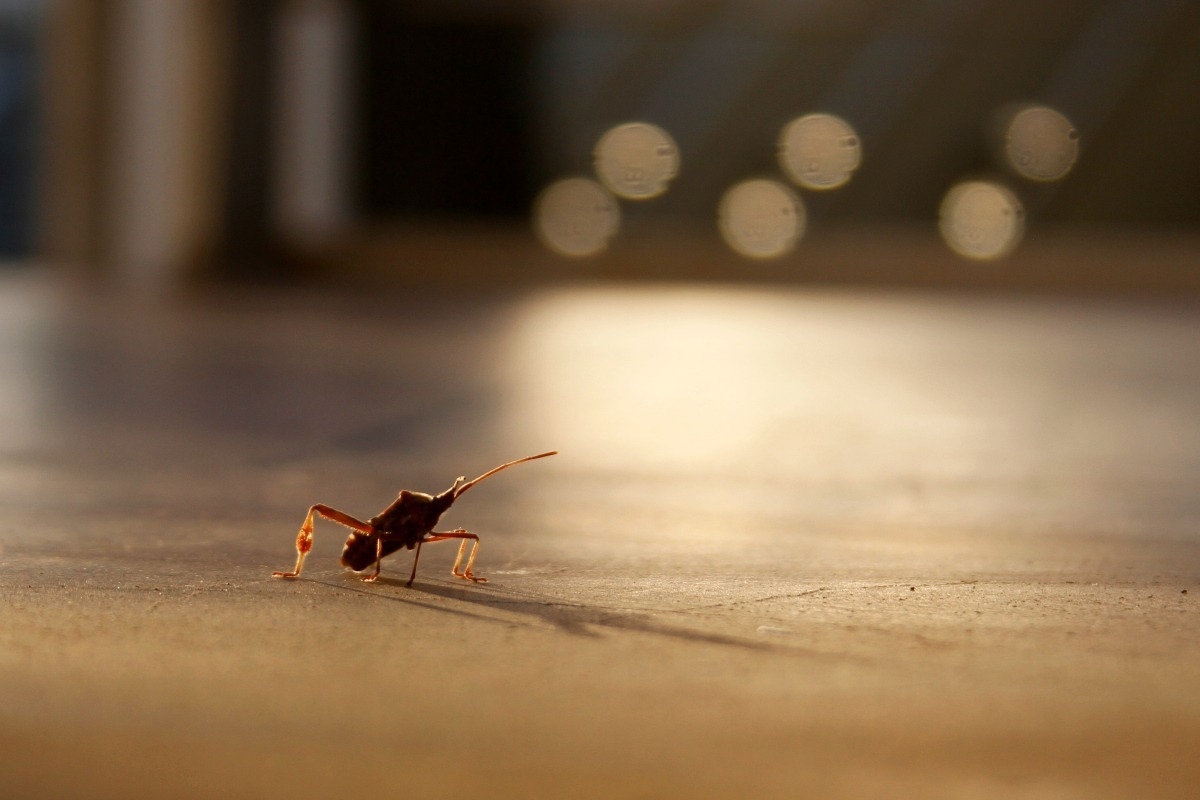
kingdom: Animalia
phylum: Arthropoda
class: Insecta
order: Hemiptera
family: Coreidae
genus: Leptoglossus
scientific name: Leptoglossus occidentalis
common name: Western conifer-seed bug
